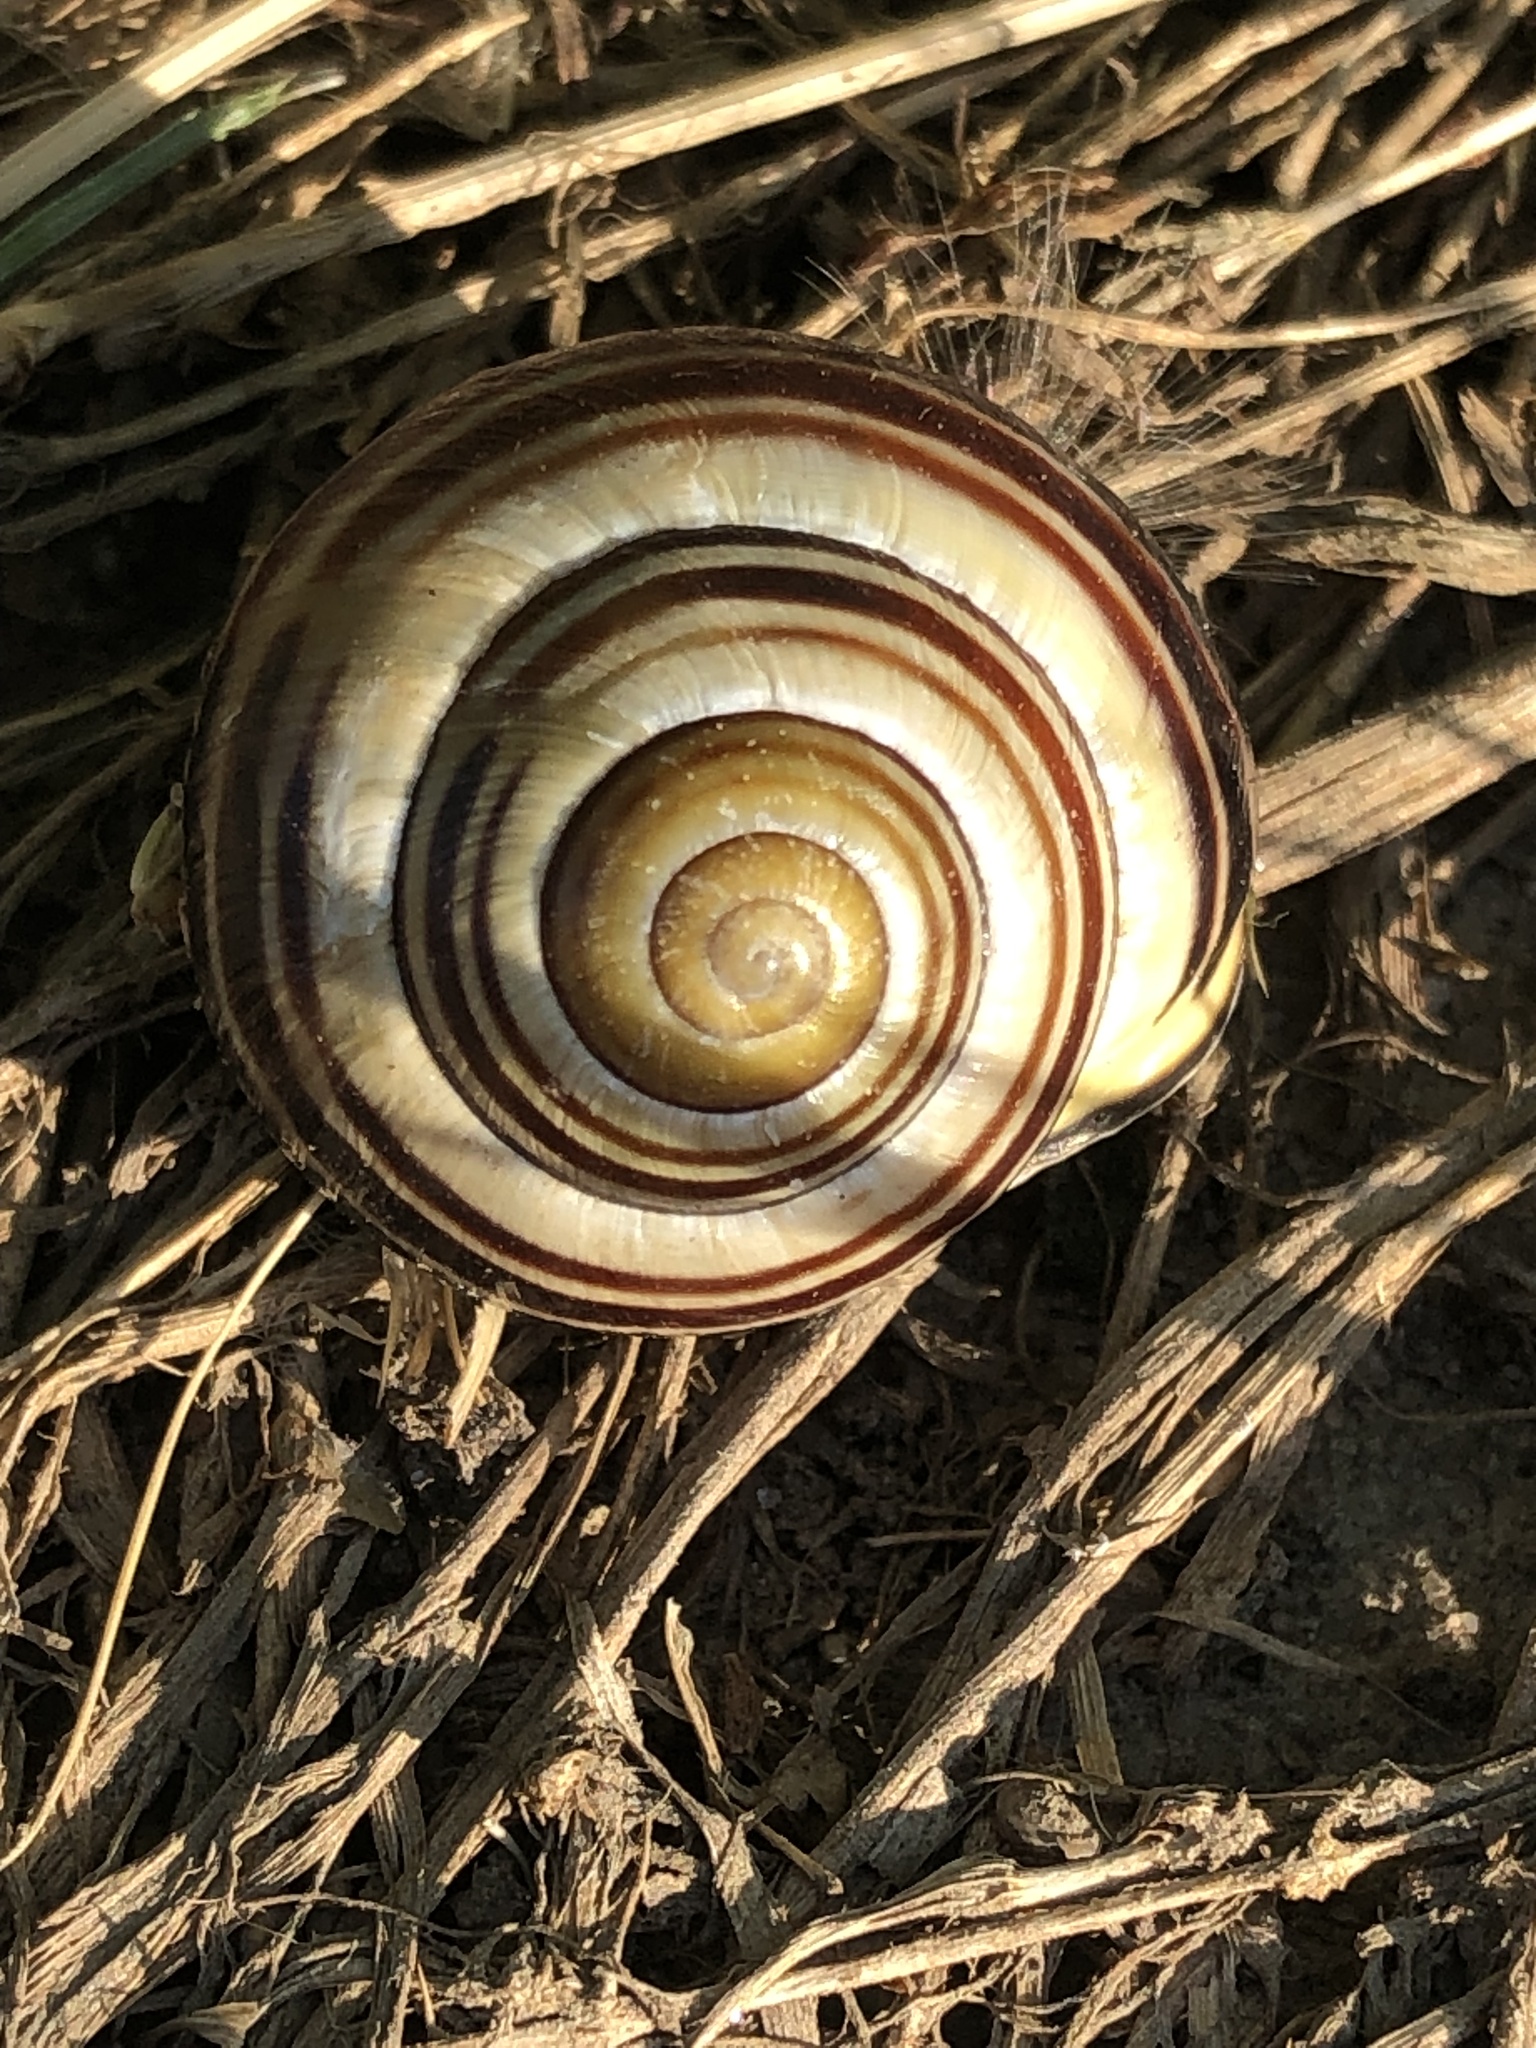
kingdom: Animalia
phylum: Mollusca
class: Gastropoda
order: Stylommatophora
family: Helicidae
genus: Cepaea
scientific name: Cepaea nemoralis
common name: Grovesnail
